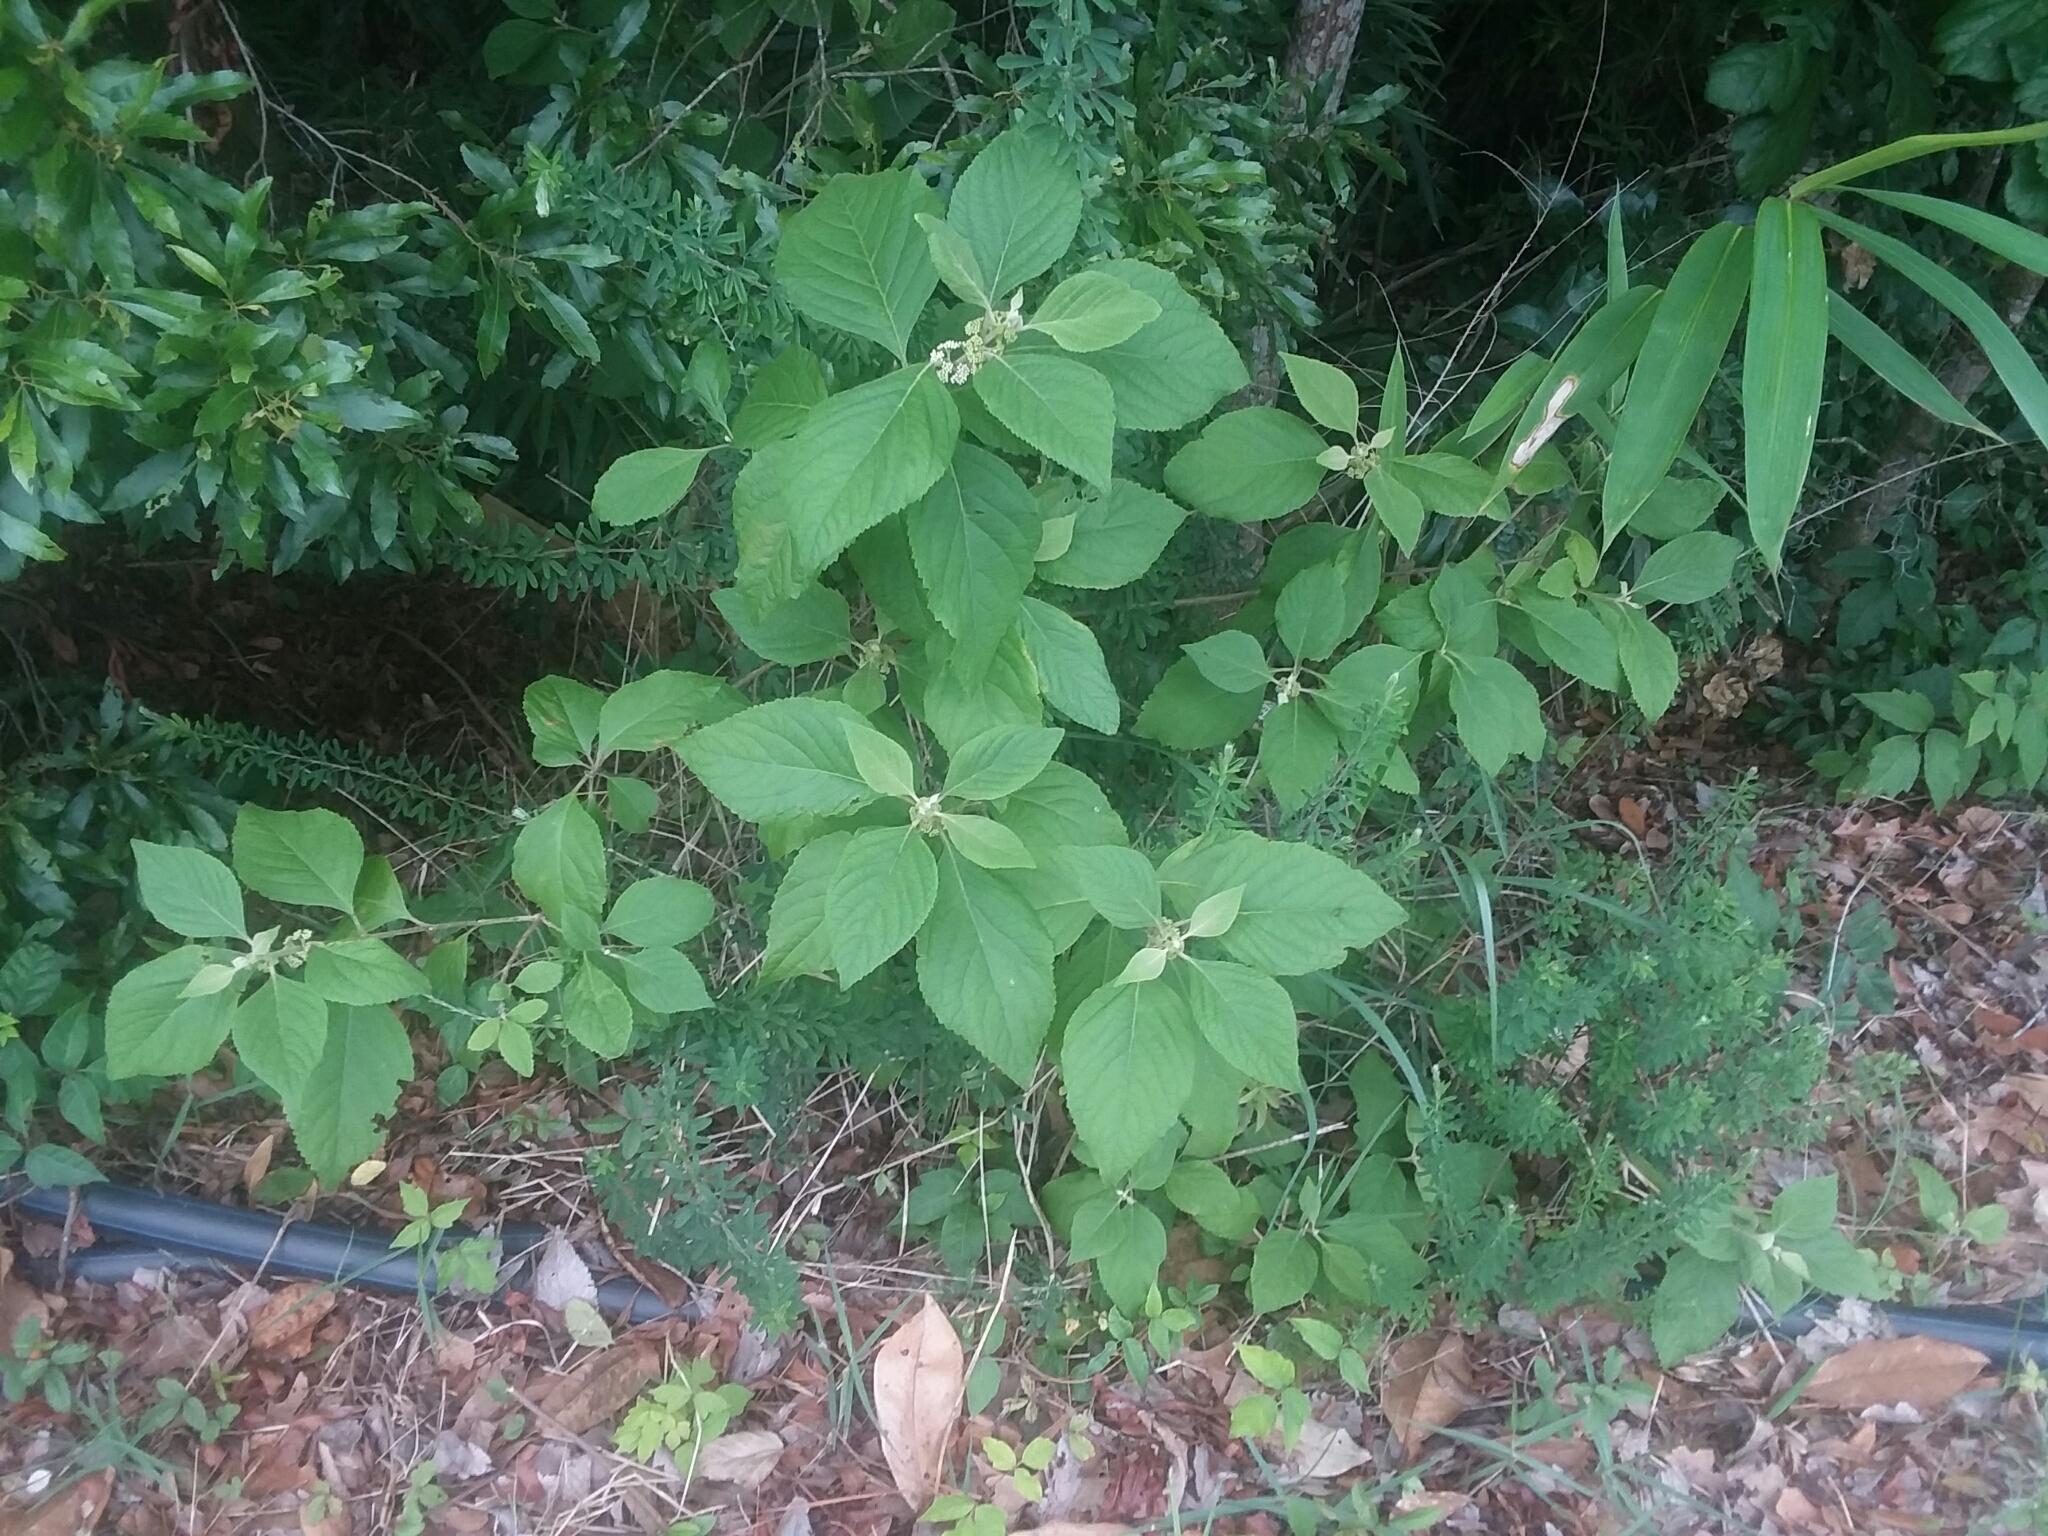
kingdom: Plantae
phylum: Tracheophyta
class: Magnoliopsida
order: Lamiales
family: Lamiaceae
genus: Callicarpa
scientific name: Callicarpa americana
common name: American beautyberry
